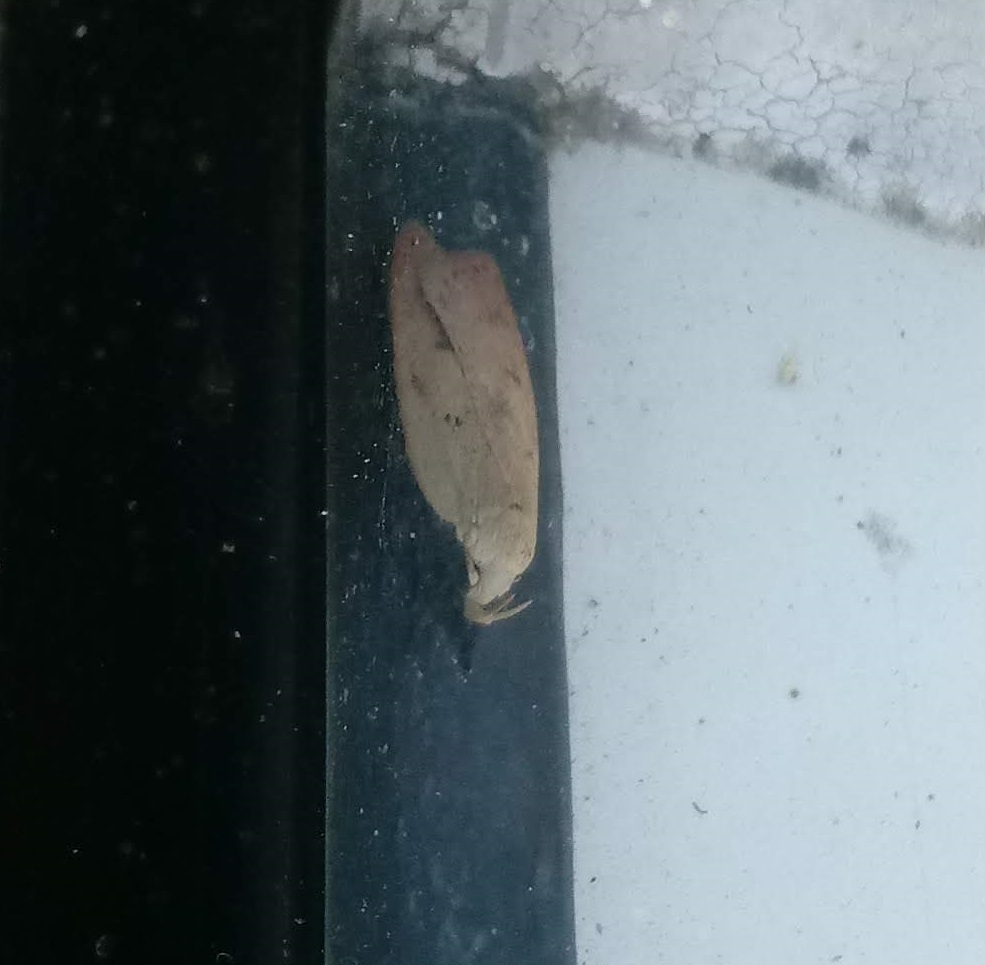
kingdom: Animalia
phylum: Arthropoda
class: Insecta
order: Lepidoptera
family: Peleopodidae
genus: Machimia
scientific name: Machimia tentoriferella
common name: Gold-striped leaftier moth
